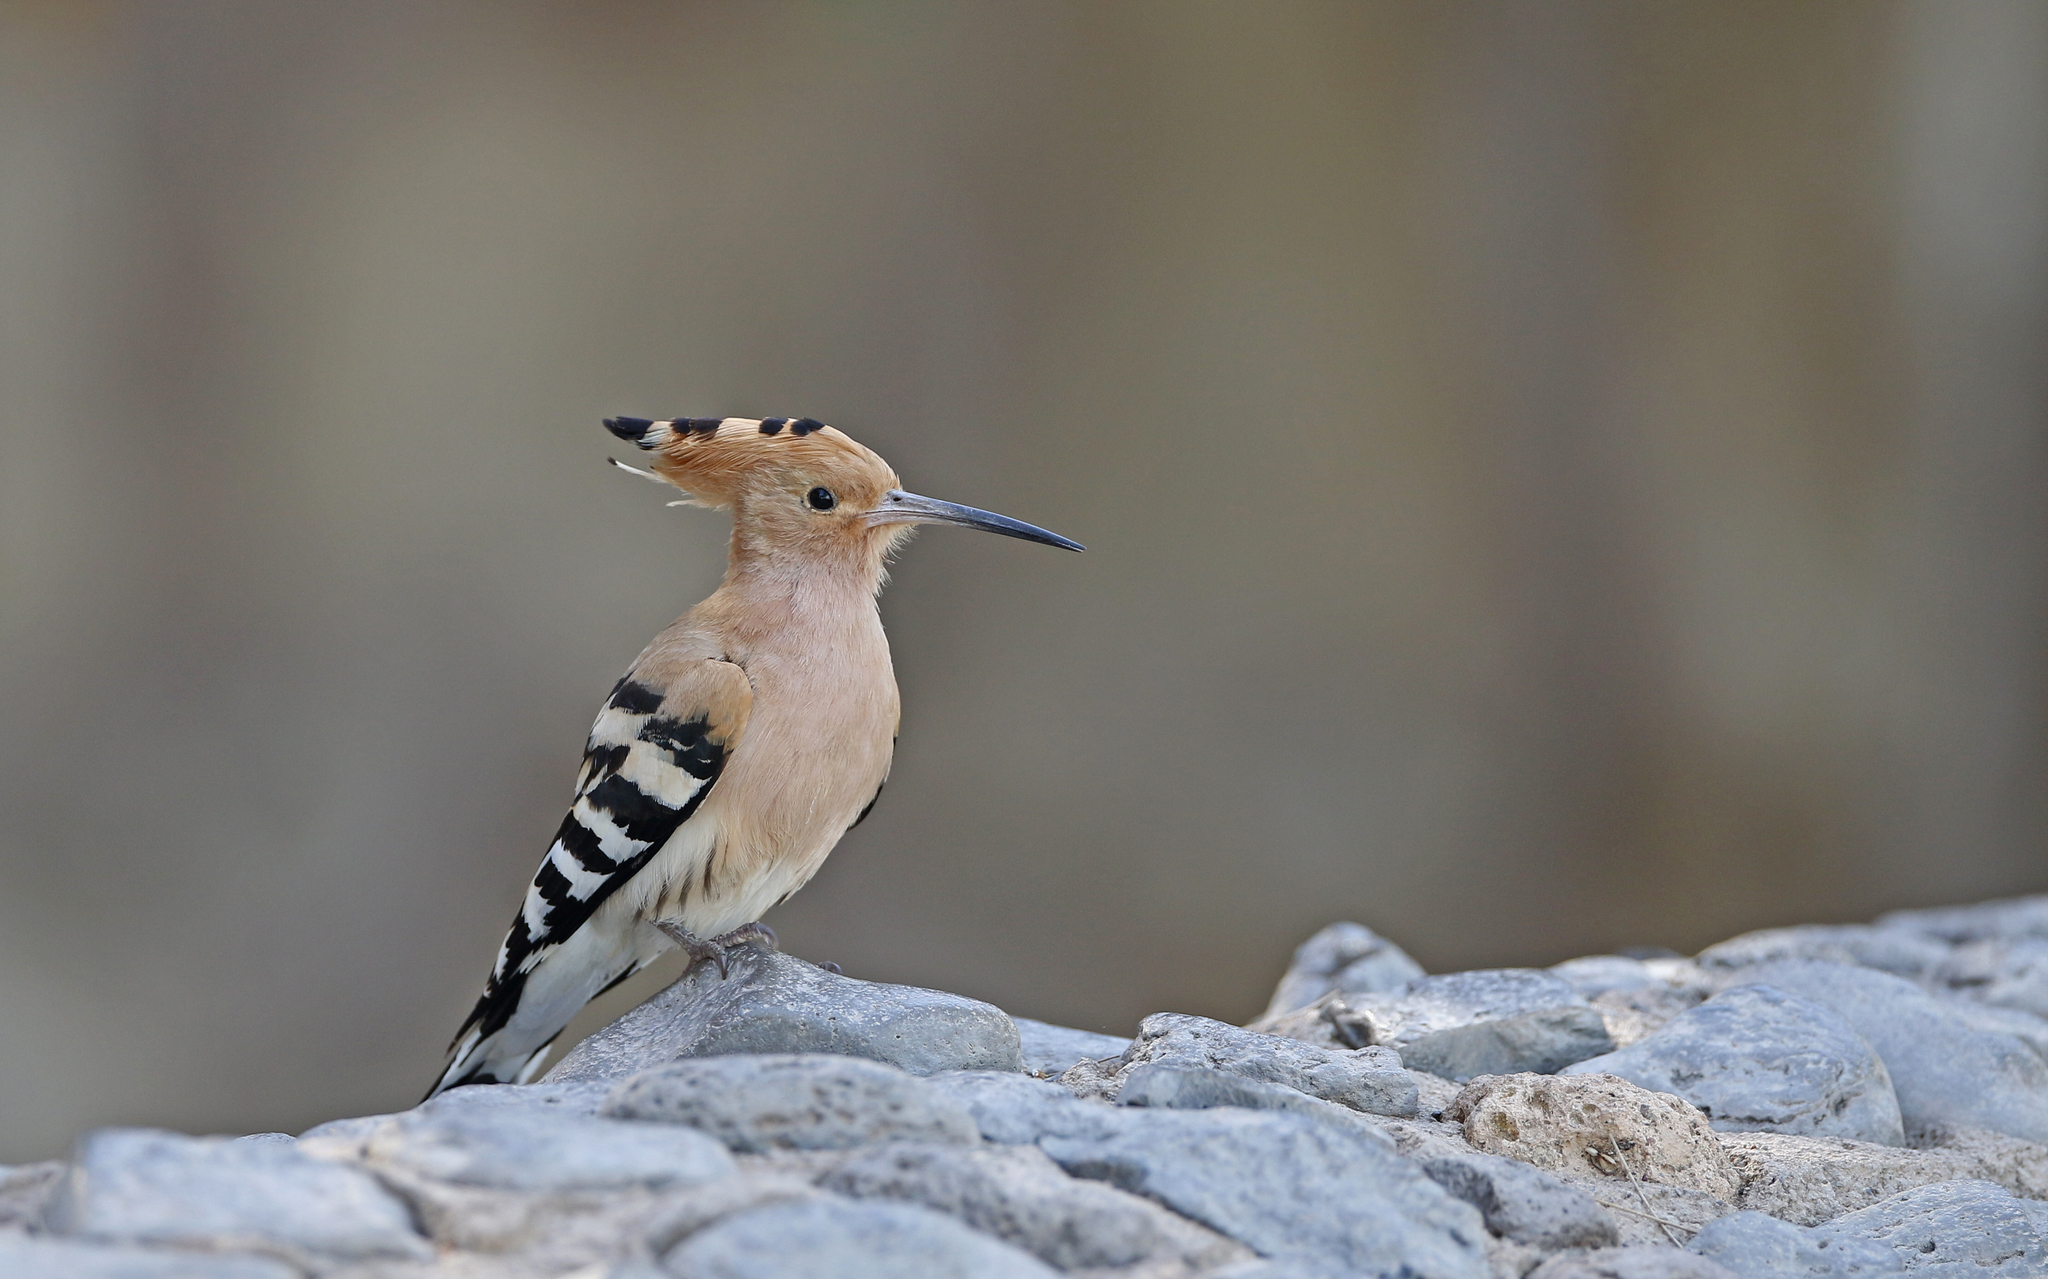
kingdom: Animalia
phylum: Chordata
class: Aves
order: Bucerotiformes
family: Upupidae
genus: Upupa
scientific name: Upupa epops
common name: Eurasian hoopoe
